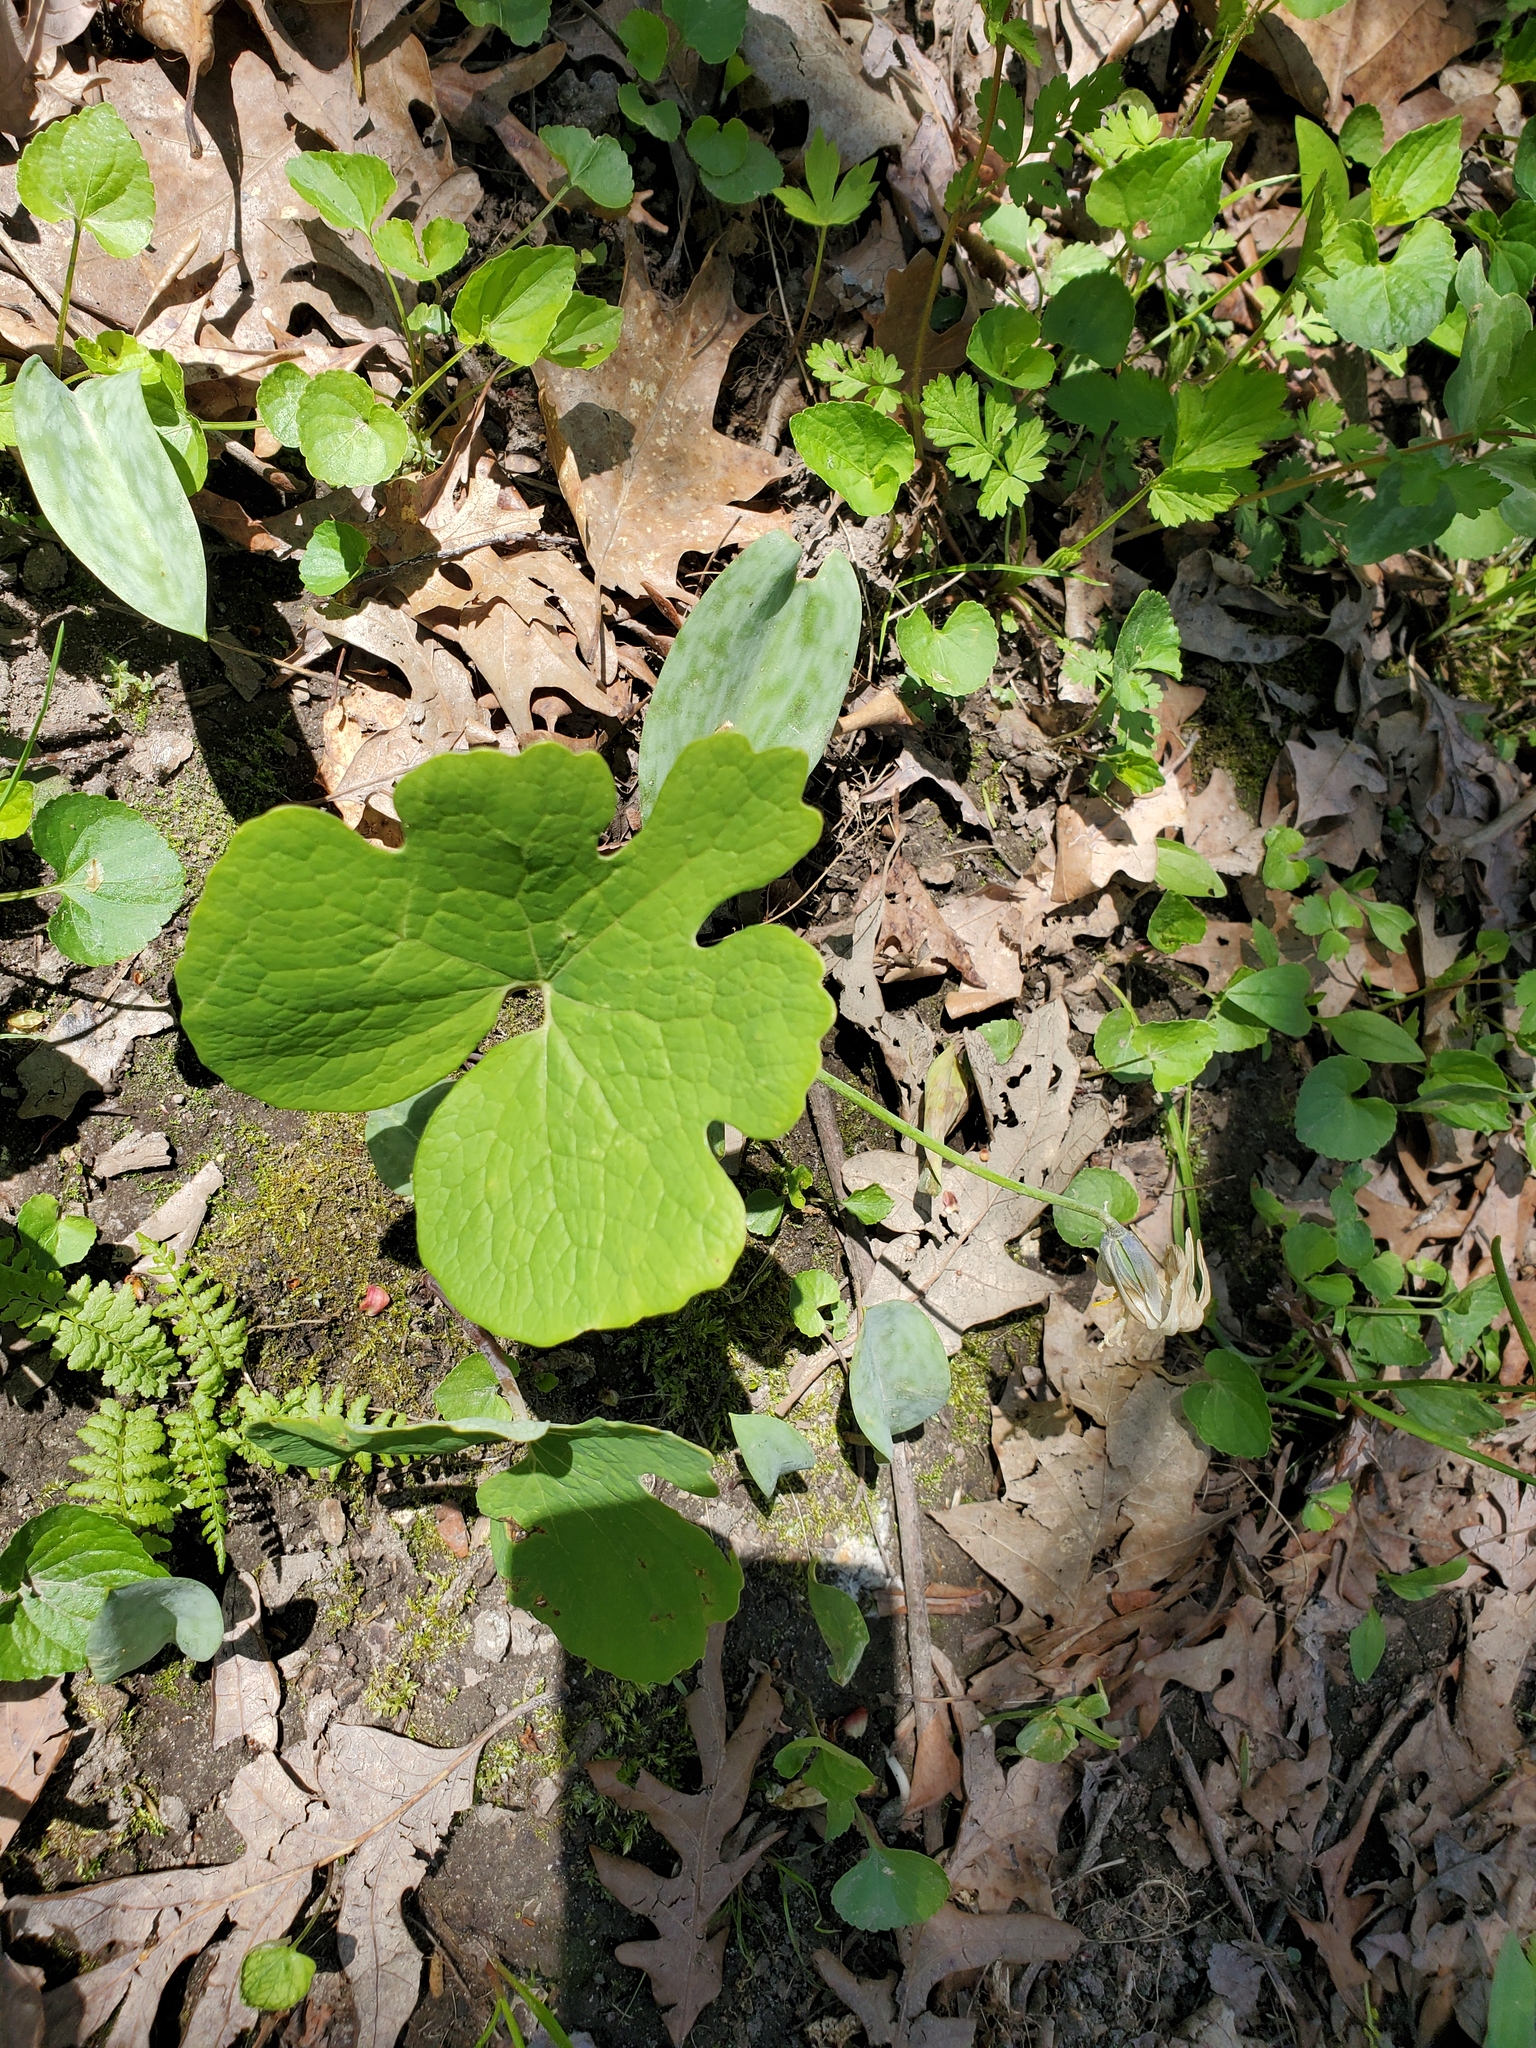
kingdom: Plantae
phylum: Tracheophyta
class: Magnoliopsida
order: Ranunculales
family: Papaveraceae
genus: Sanguinaria
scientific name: Sanguinaria canadensis
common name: Bloodroot
